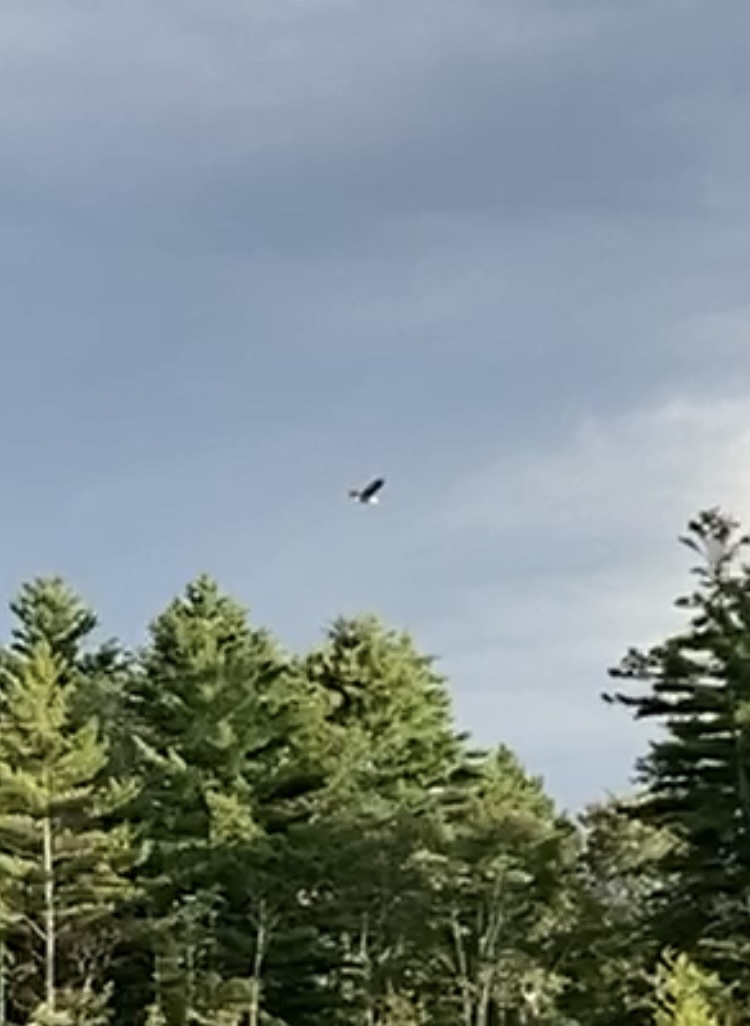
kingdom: Animalia
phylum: Chordata
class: Aves
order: Accipitriformes
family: Accipitridae
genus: Haliaeetus
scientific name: Haliaeetus leucocephalus
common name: Bald eagle
